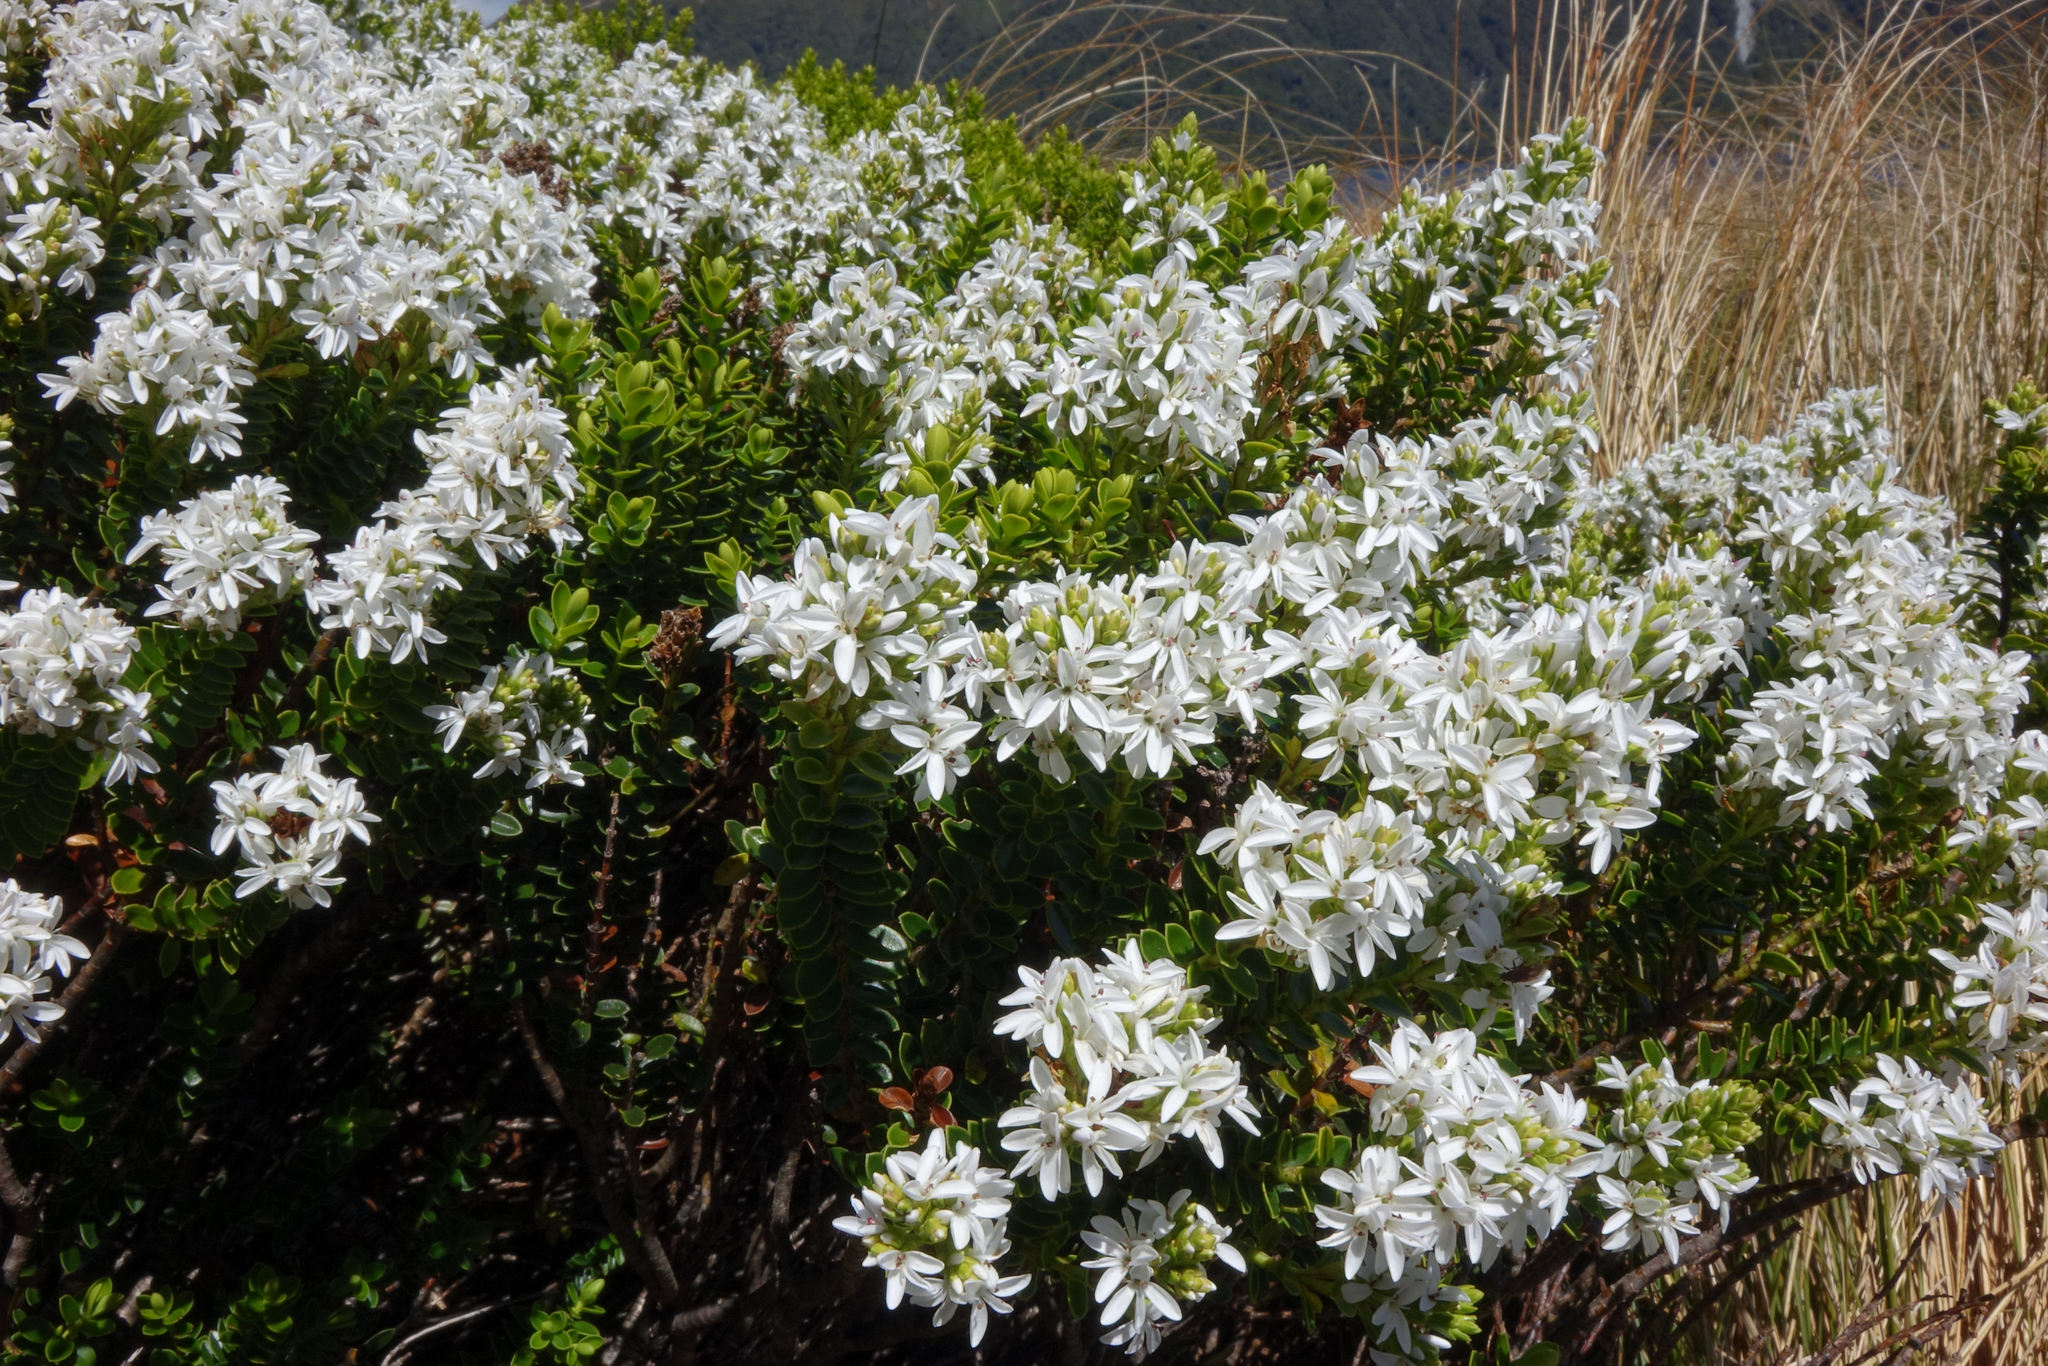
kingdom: Plantae
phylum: Tracheophyta
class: Magnoliopsida
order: Lamiales
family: Plantaginaceae
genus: Veronica
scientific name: Veronica odora
